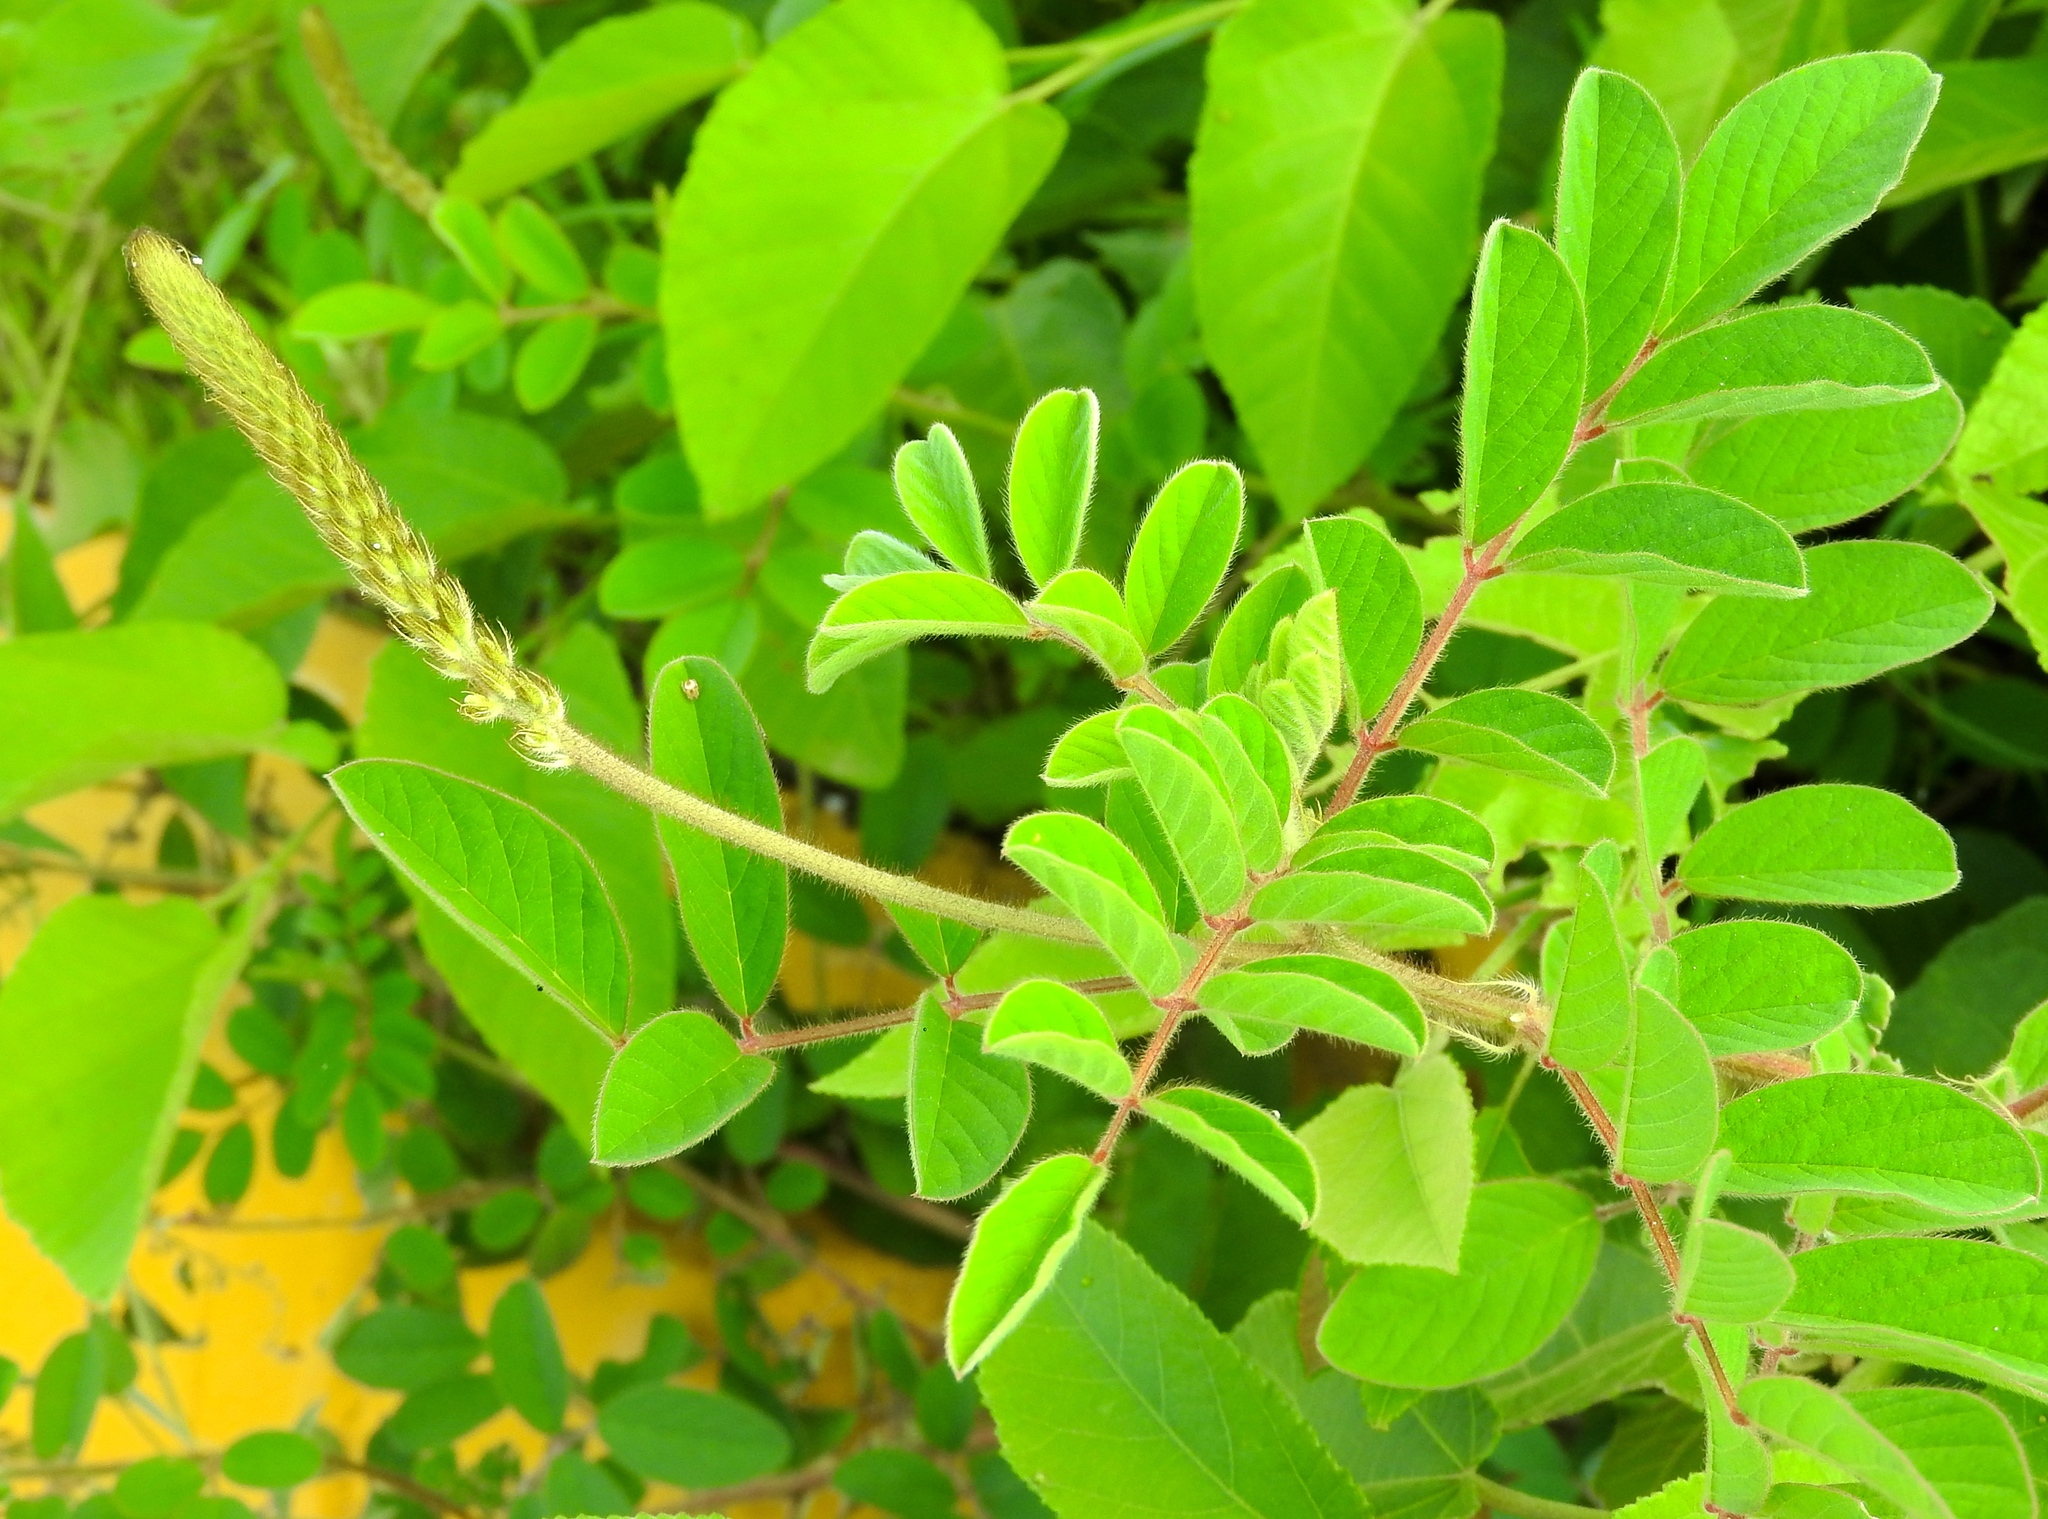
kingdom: Plantae
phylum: Tracheophyta
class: Magnoliopsida
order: Fabales
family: Fabaceae
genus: Indigofera
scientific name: Indigofera
